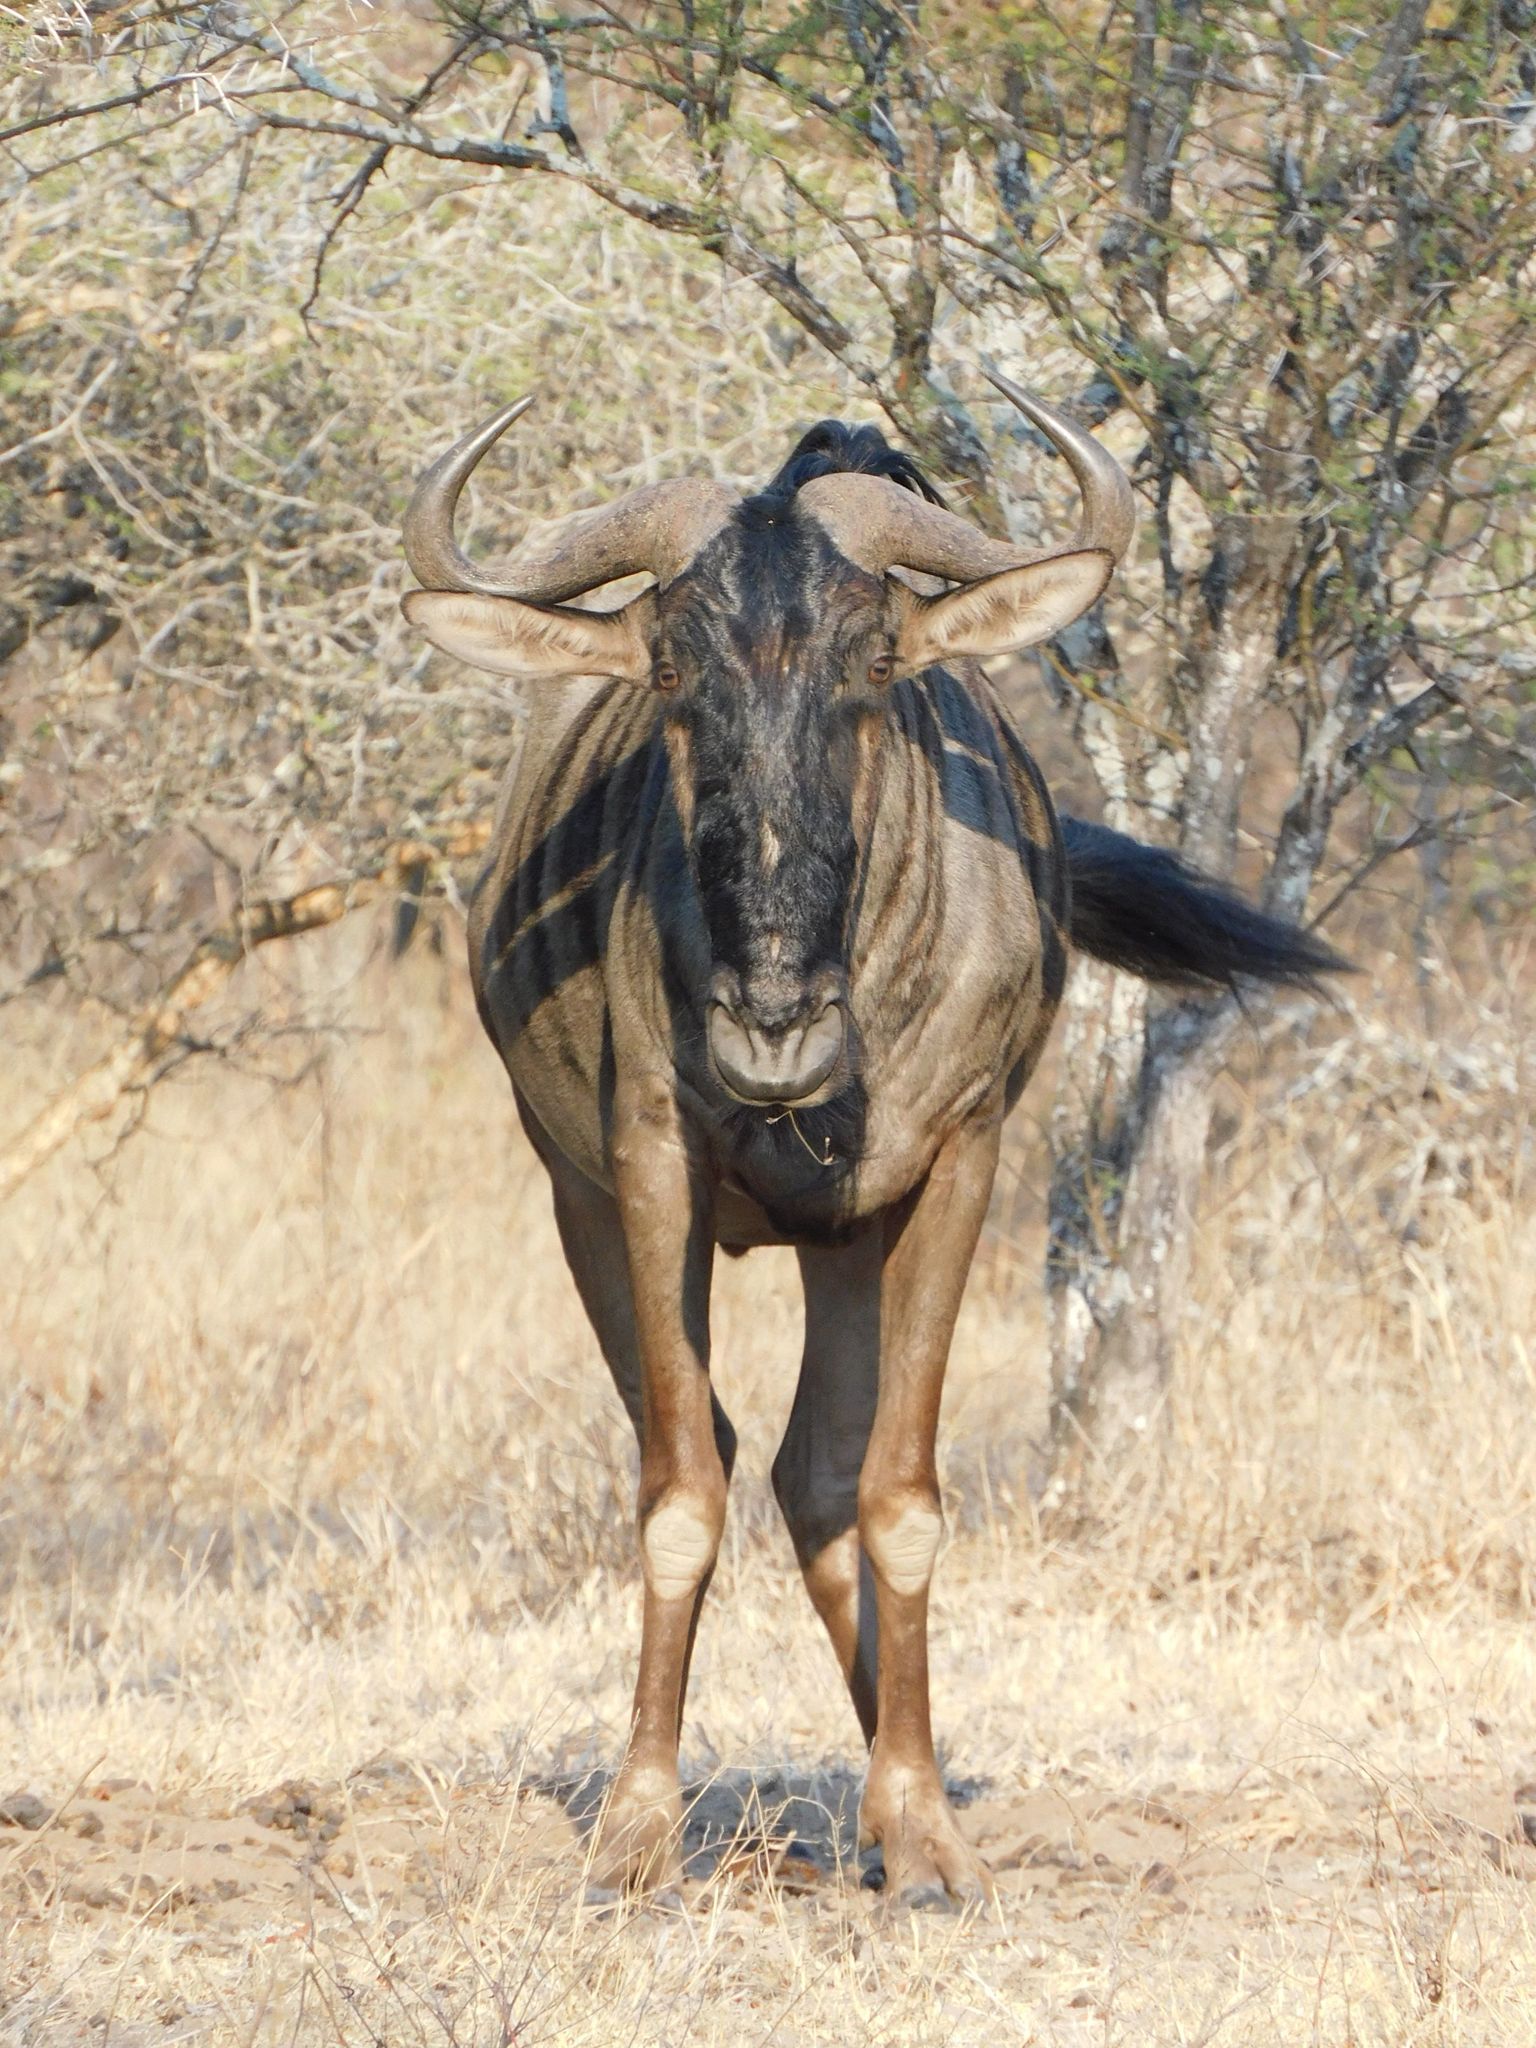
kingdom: Animalia
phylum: Chordata
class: Mammalia
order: Artiodactyla
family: Bovidae
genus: Connochaetes
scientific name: Connochaetes taurinus
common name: Blue wildebeest
